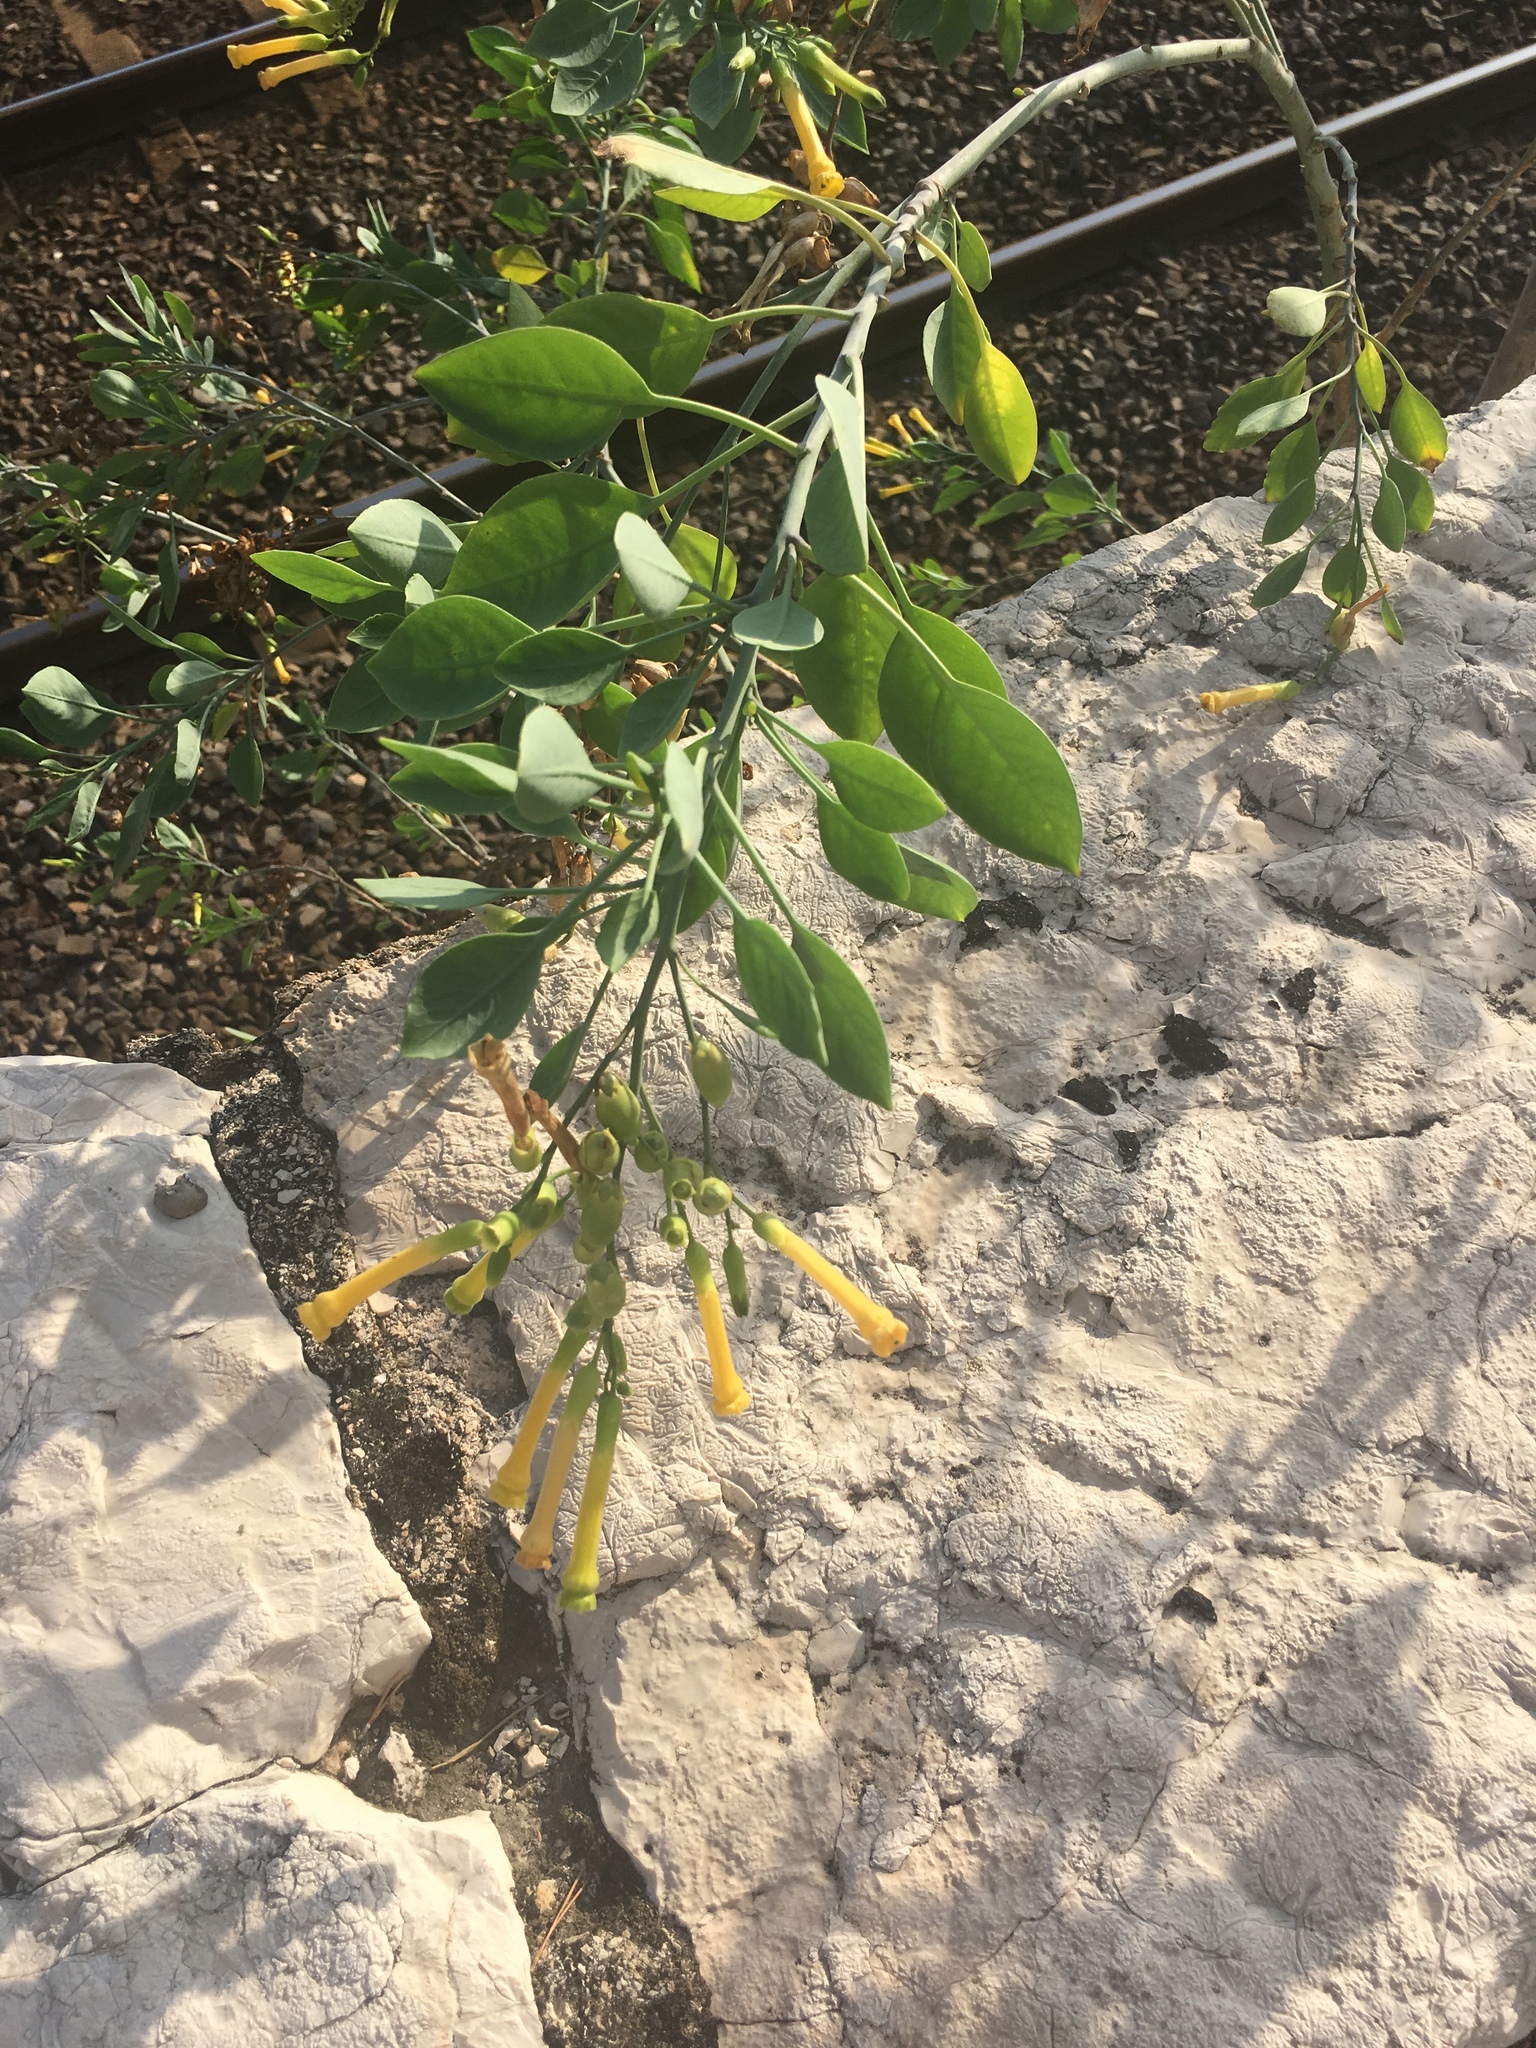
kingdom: Plantae
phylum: Tracheophyta
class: Magnoliopsida
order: Solanales
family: Solanaceae
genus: Nicotiana
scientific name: Nicotiana glauca
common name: Tree tobacco
